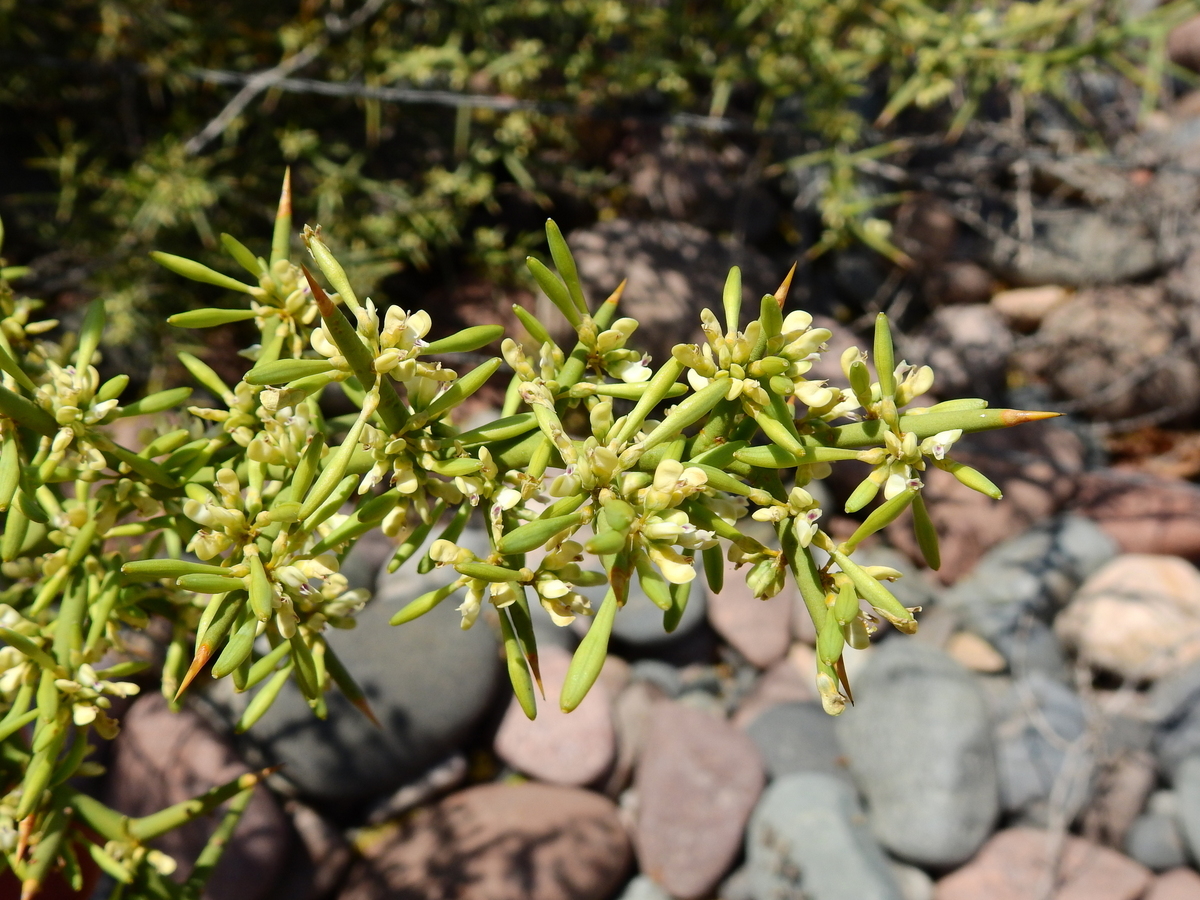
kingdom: Plantae
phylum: Tracheophyta
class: Magnoliopsida
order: Fabales
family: Polygalaceae
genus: Bredemeyera
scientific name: Bredemeyera colletioides
